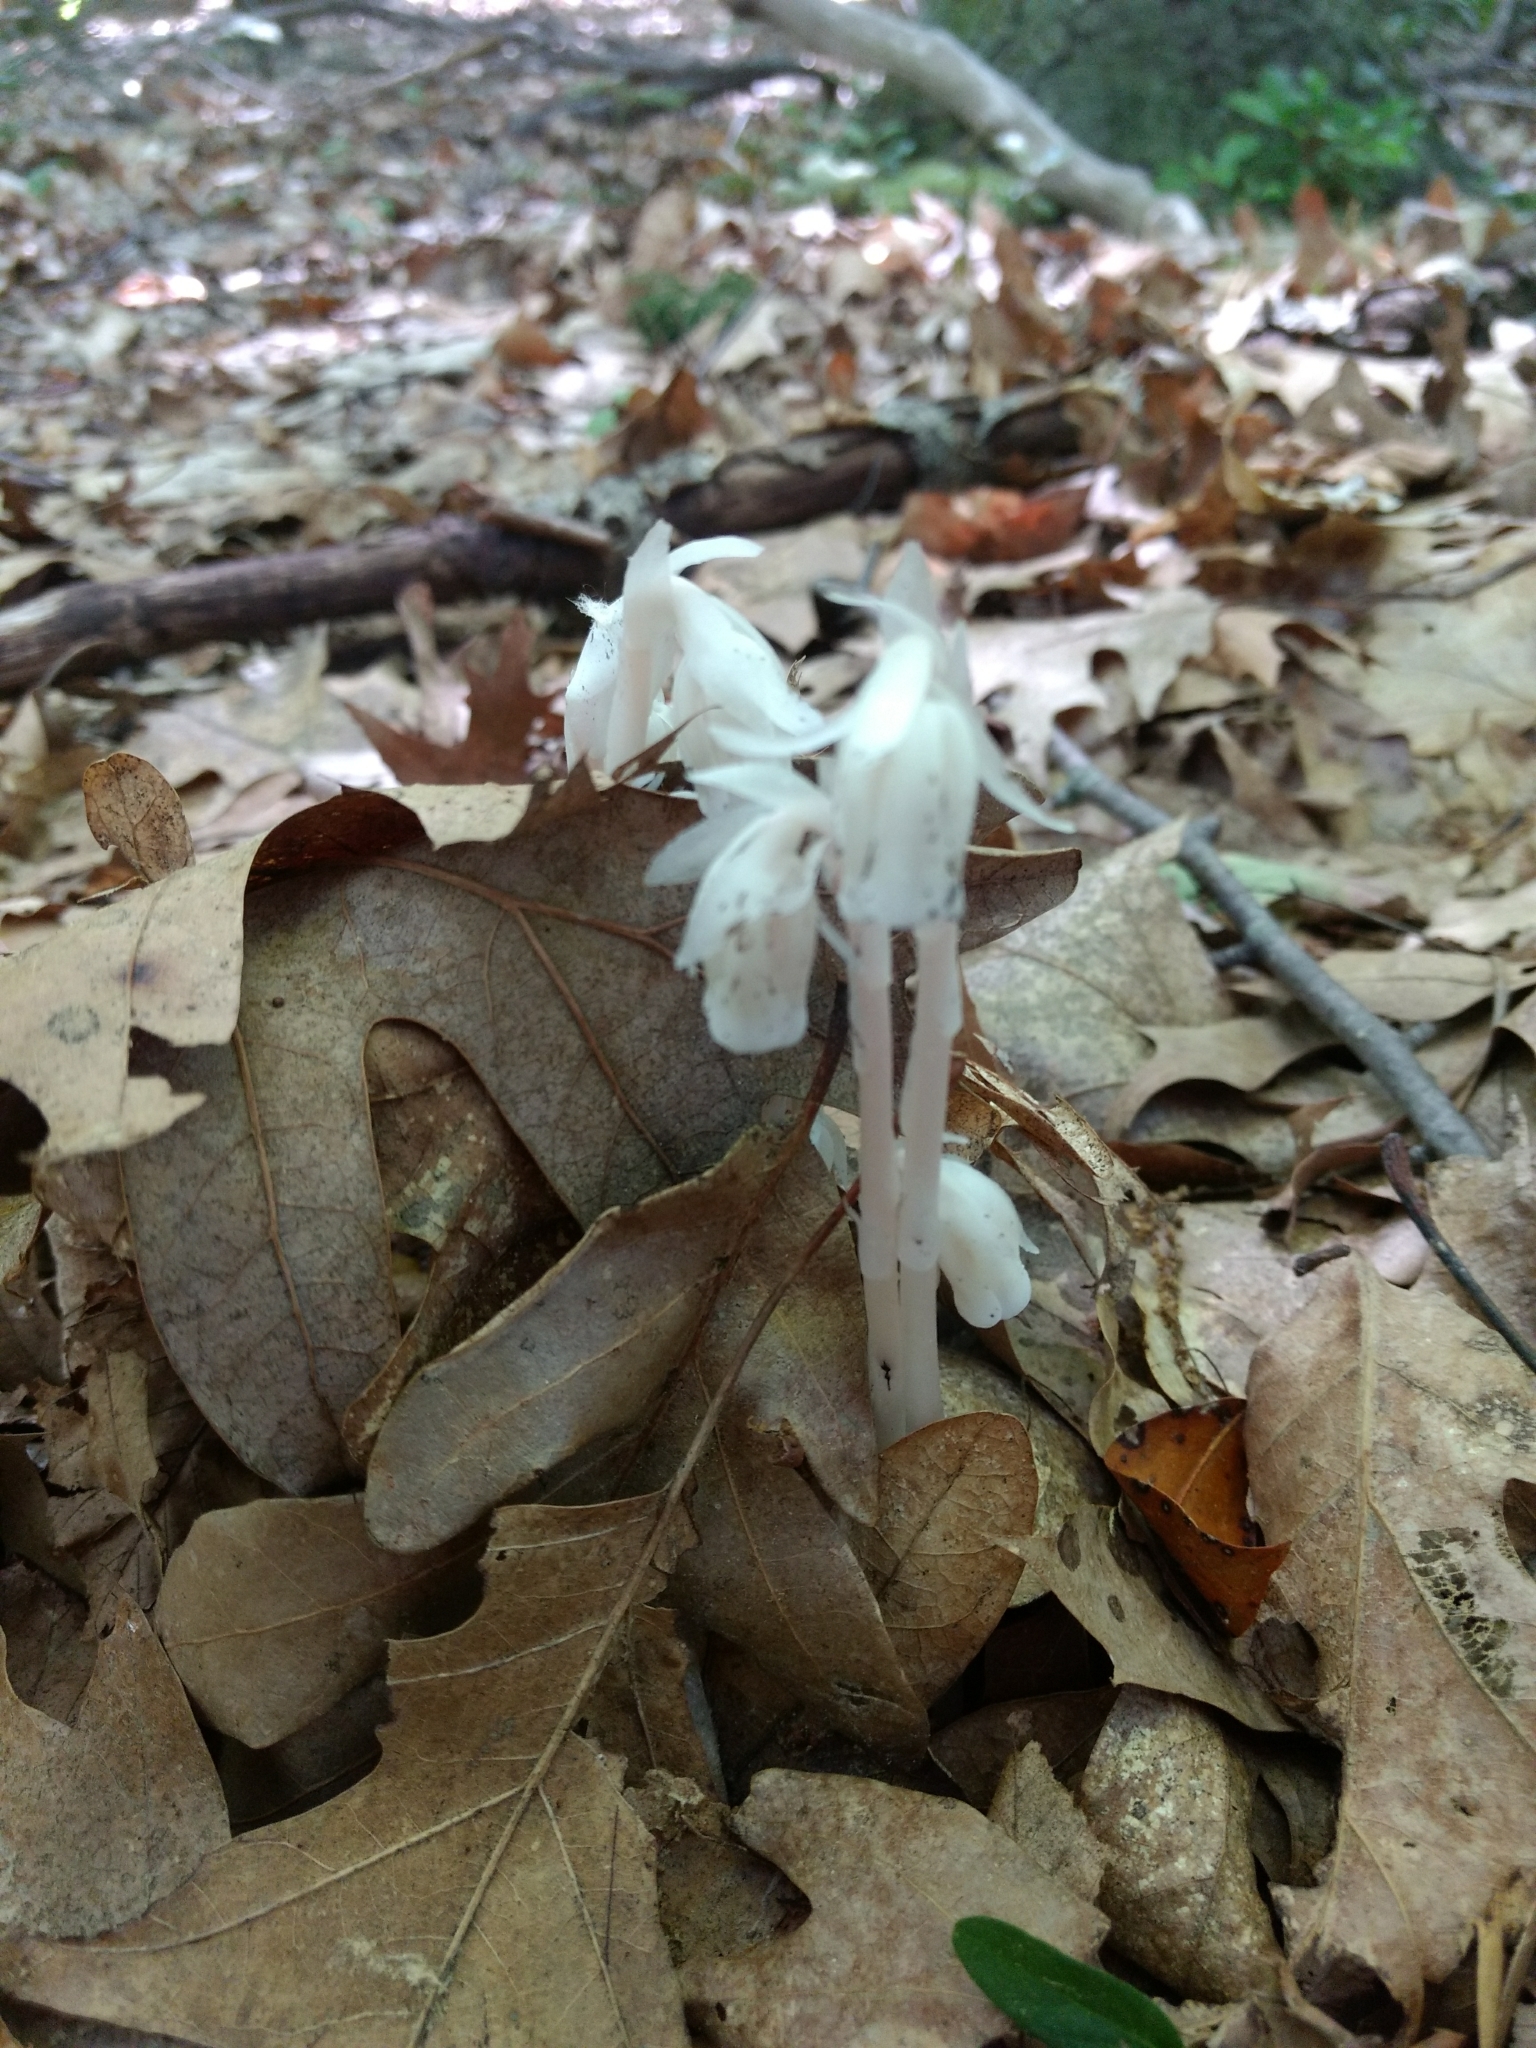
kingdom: Plantae
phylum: Tracheophyta
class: Magnoliopsida
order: Ericales
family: Ericaceae
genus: Monotropa
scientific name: Monotropa uniflora
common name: Convulsion root
